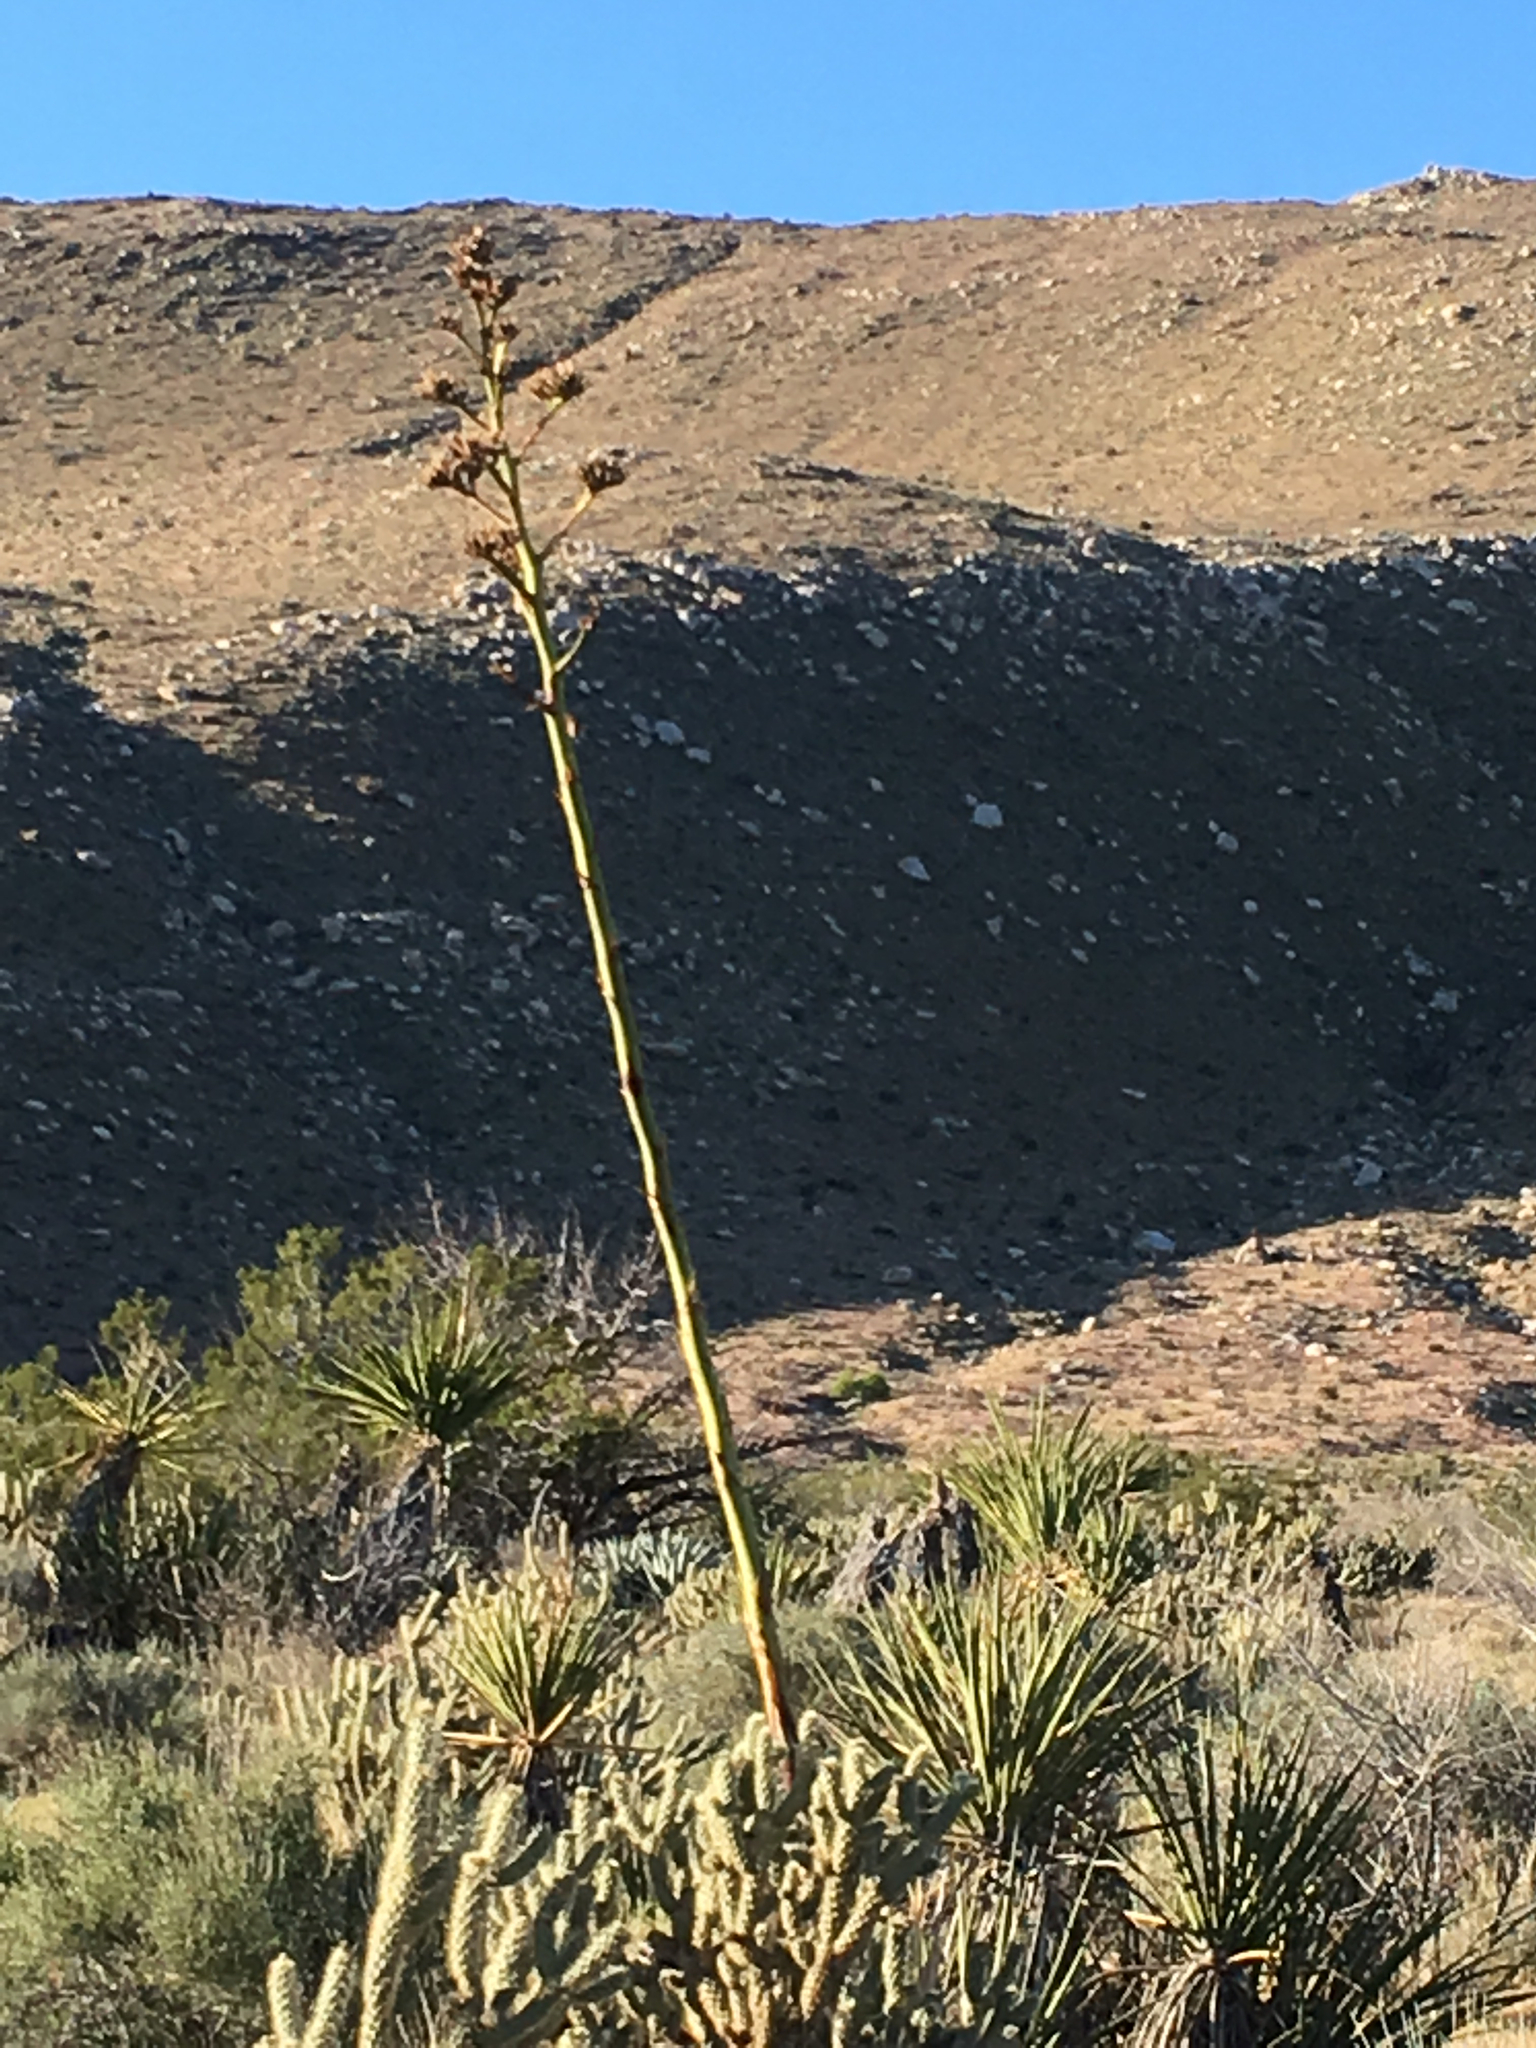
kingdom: Plantae
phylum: Tracheophyta
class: Liliopsida
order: Asparagales
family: Asparagaceae
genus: Agave
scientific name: Agave deserti
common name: Desert agave
